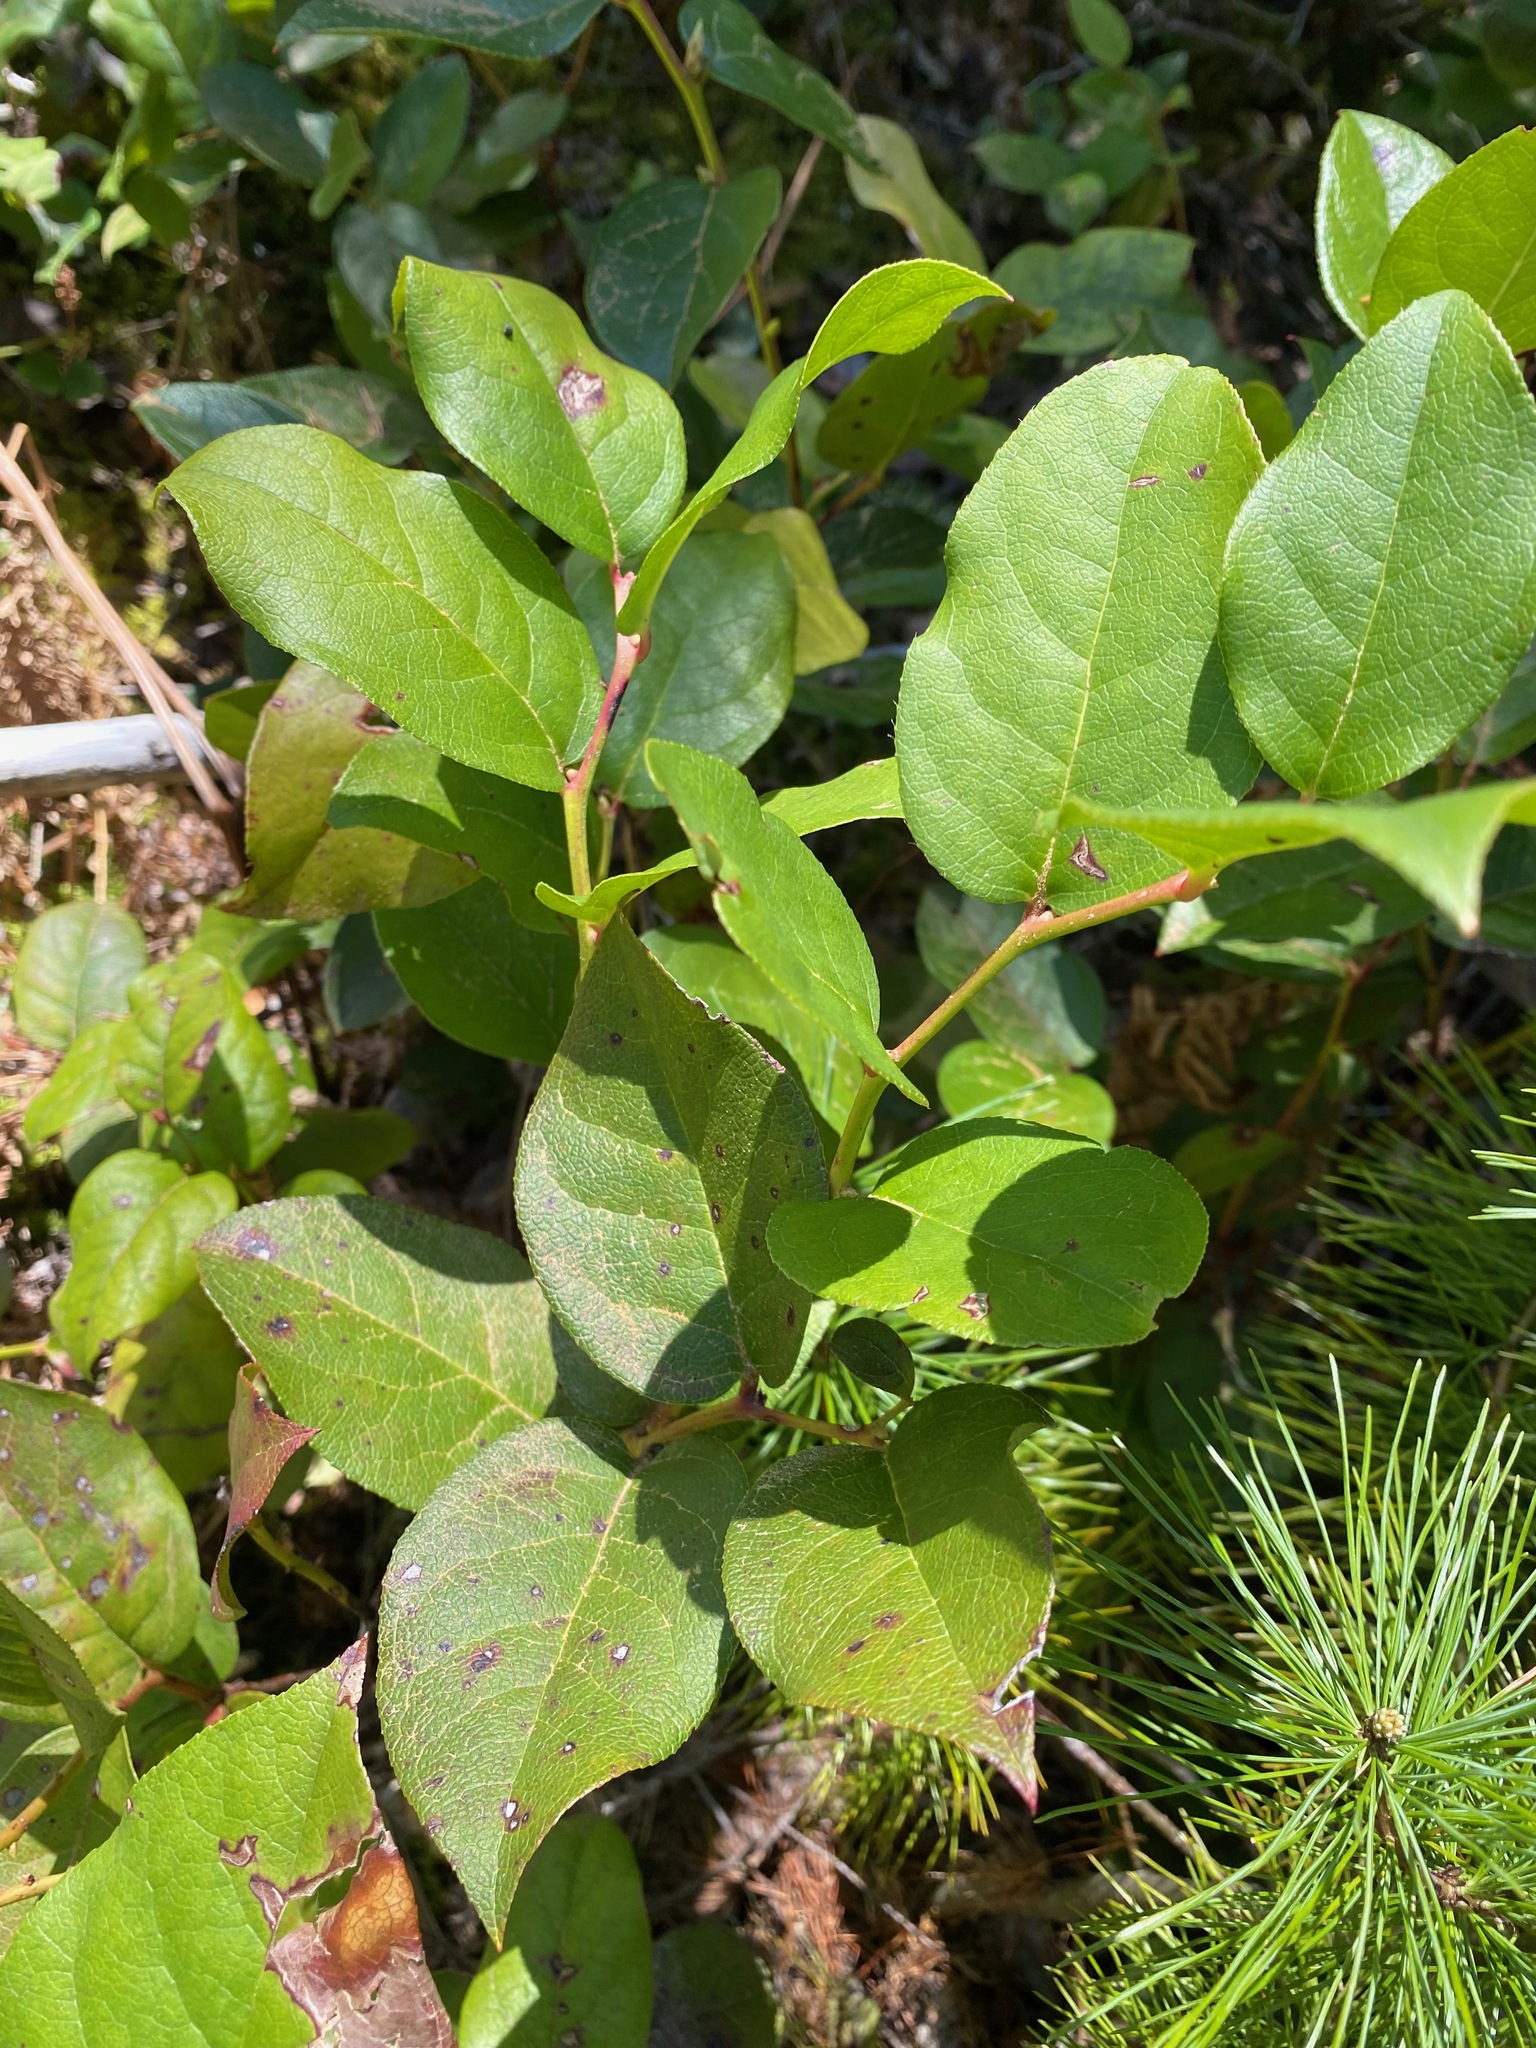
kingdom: Plantae
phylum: Tracheophyta
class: Magnoliopsida
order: Ericales
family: Ericaceae
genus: Gaultheria
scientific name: Gaultheria shallon
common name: Shallon
